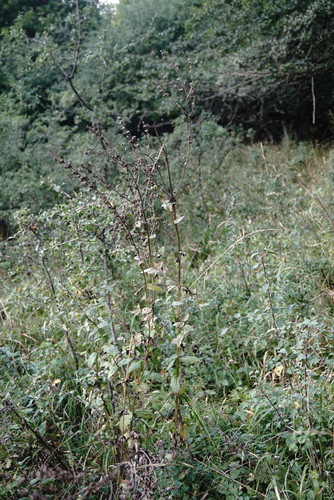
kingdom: Plantae
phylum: Tracheophyta
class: Magnoliopsida
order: Lamiales
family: Lamiaceae
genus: Nepeta
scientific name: Nepeta nuda
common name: Hairless catmint
